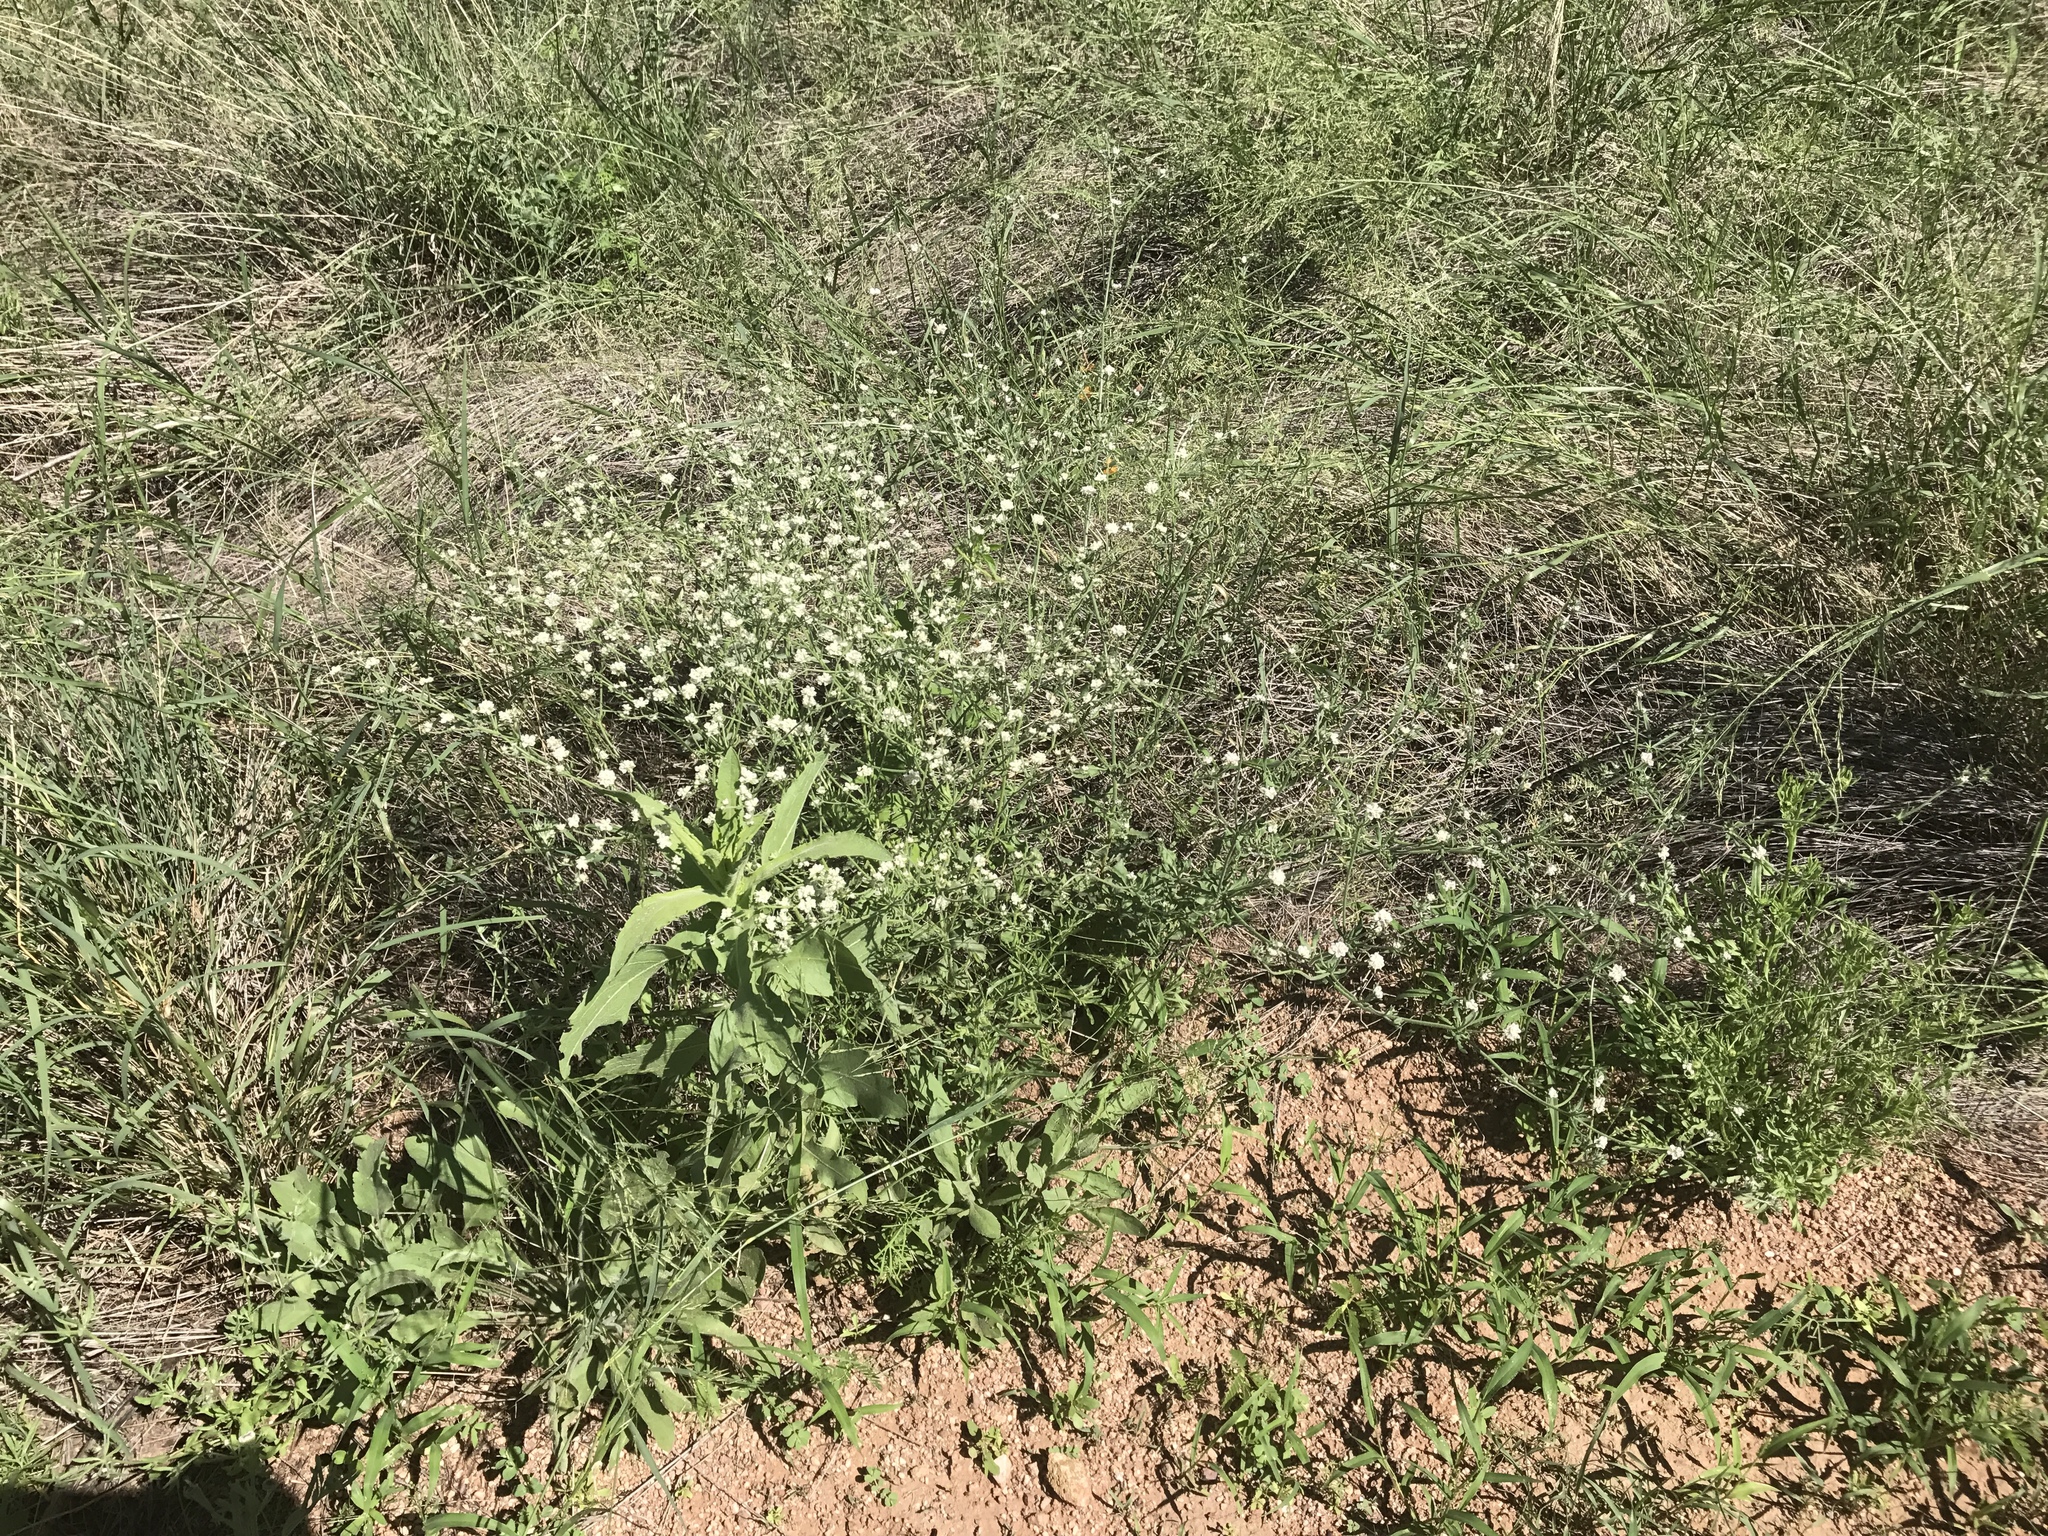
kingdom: Plantae
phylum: Tracheophyta
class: Magnoliopsida
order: Caryophyllales
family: Polygonaceae
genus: Eriogonum
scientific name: Eriogonum abertianum
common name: Abert's wild buckwheat
